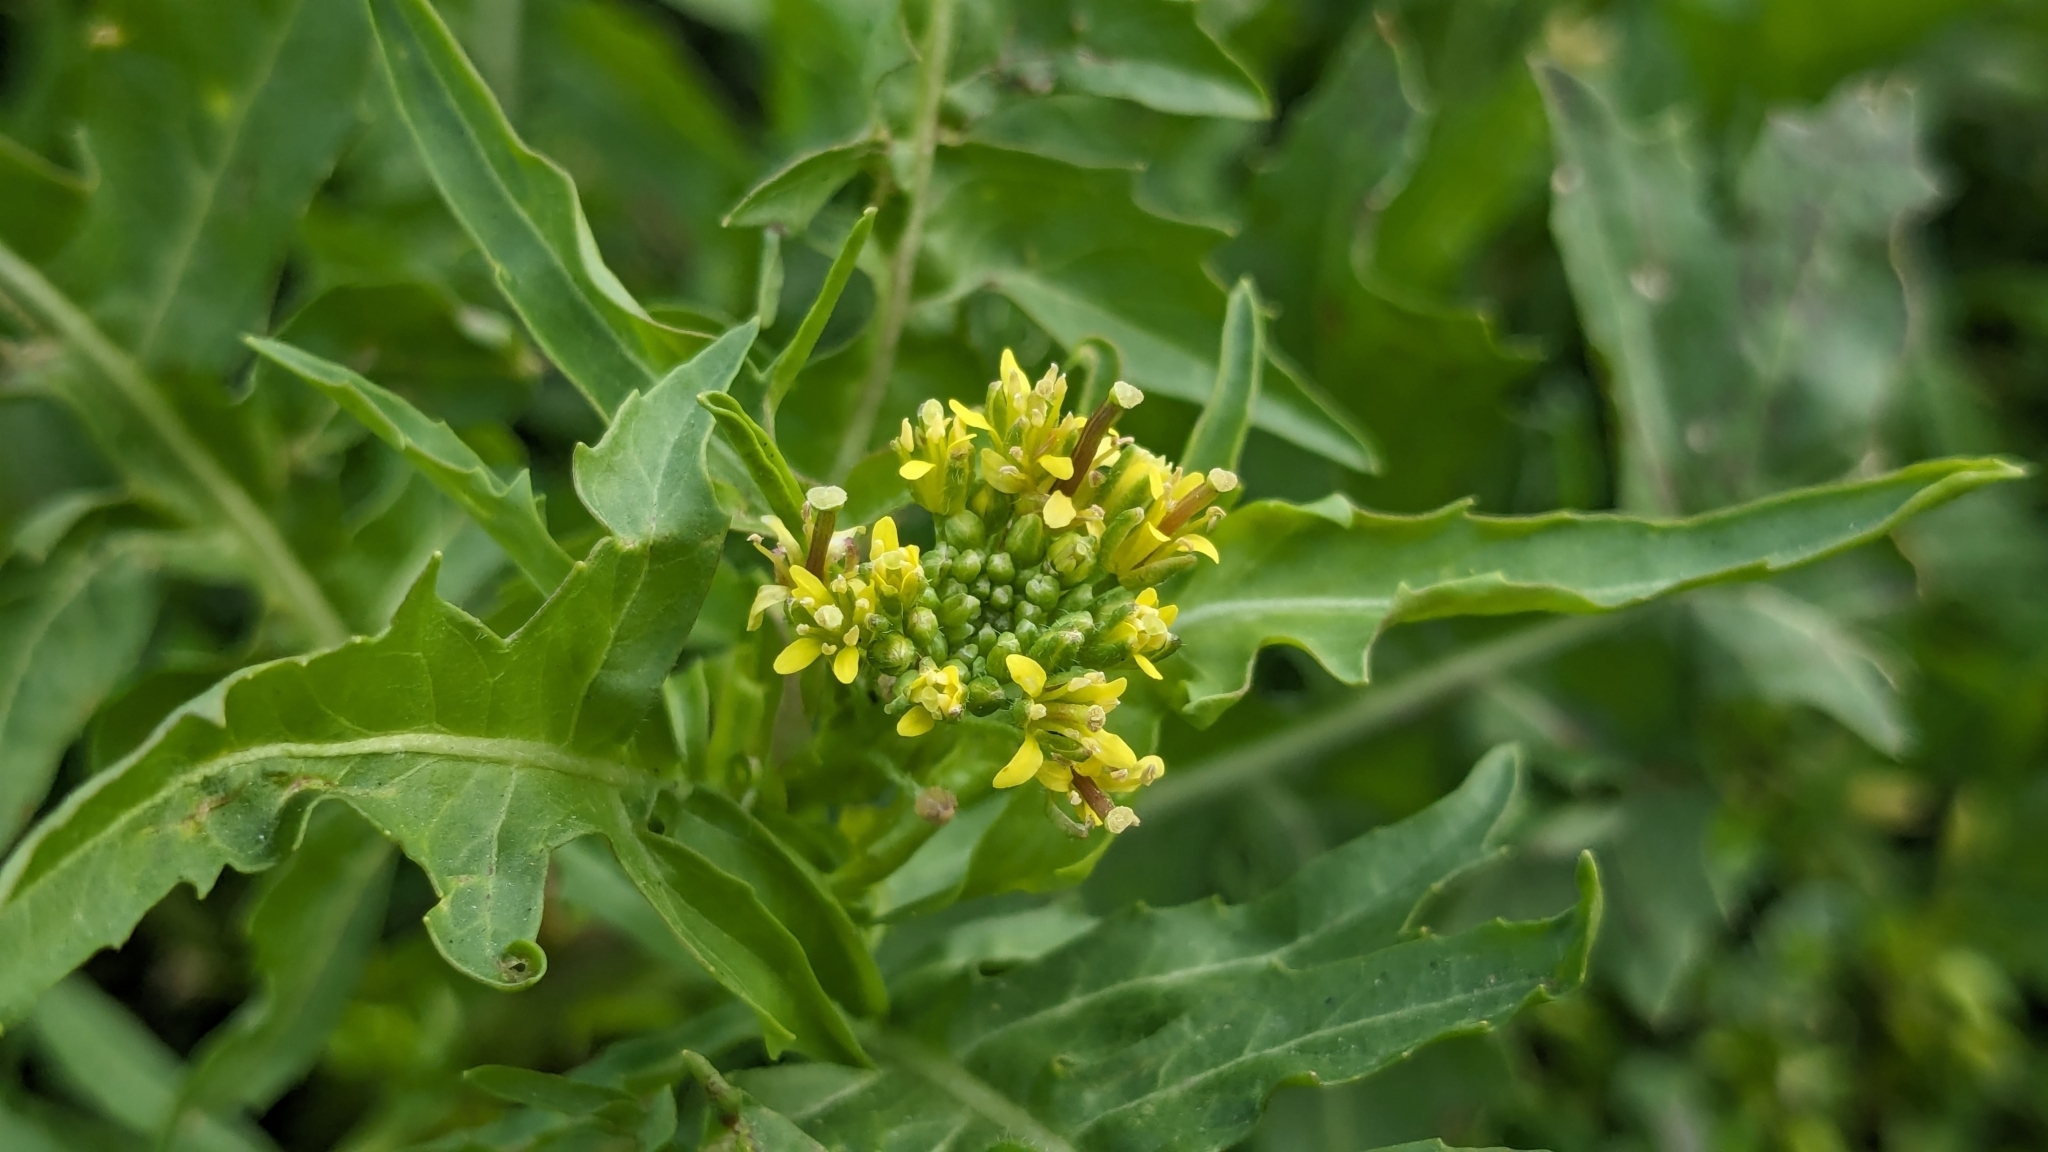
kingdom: Plantae
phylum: Tracheophyta
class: Magnoliopsida
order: Brassicales
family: Brassicaceae
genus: Sisymbrium
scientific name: Sisymbrium irio
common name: London rocket
